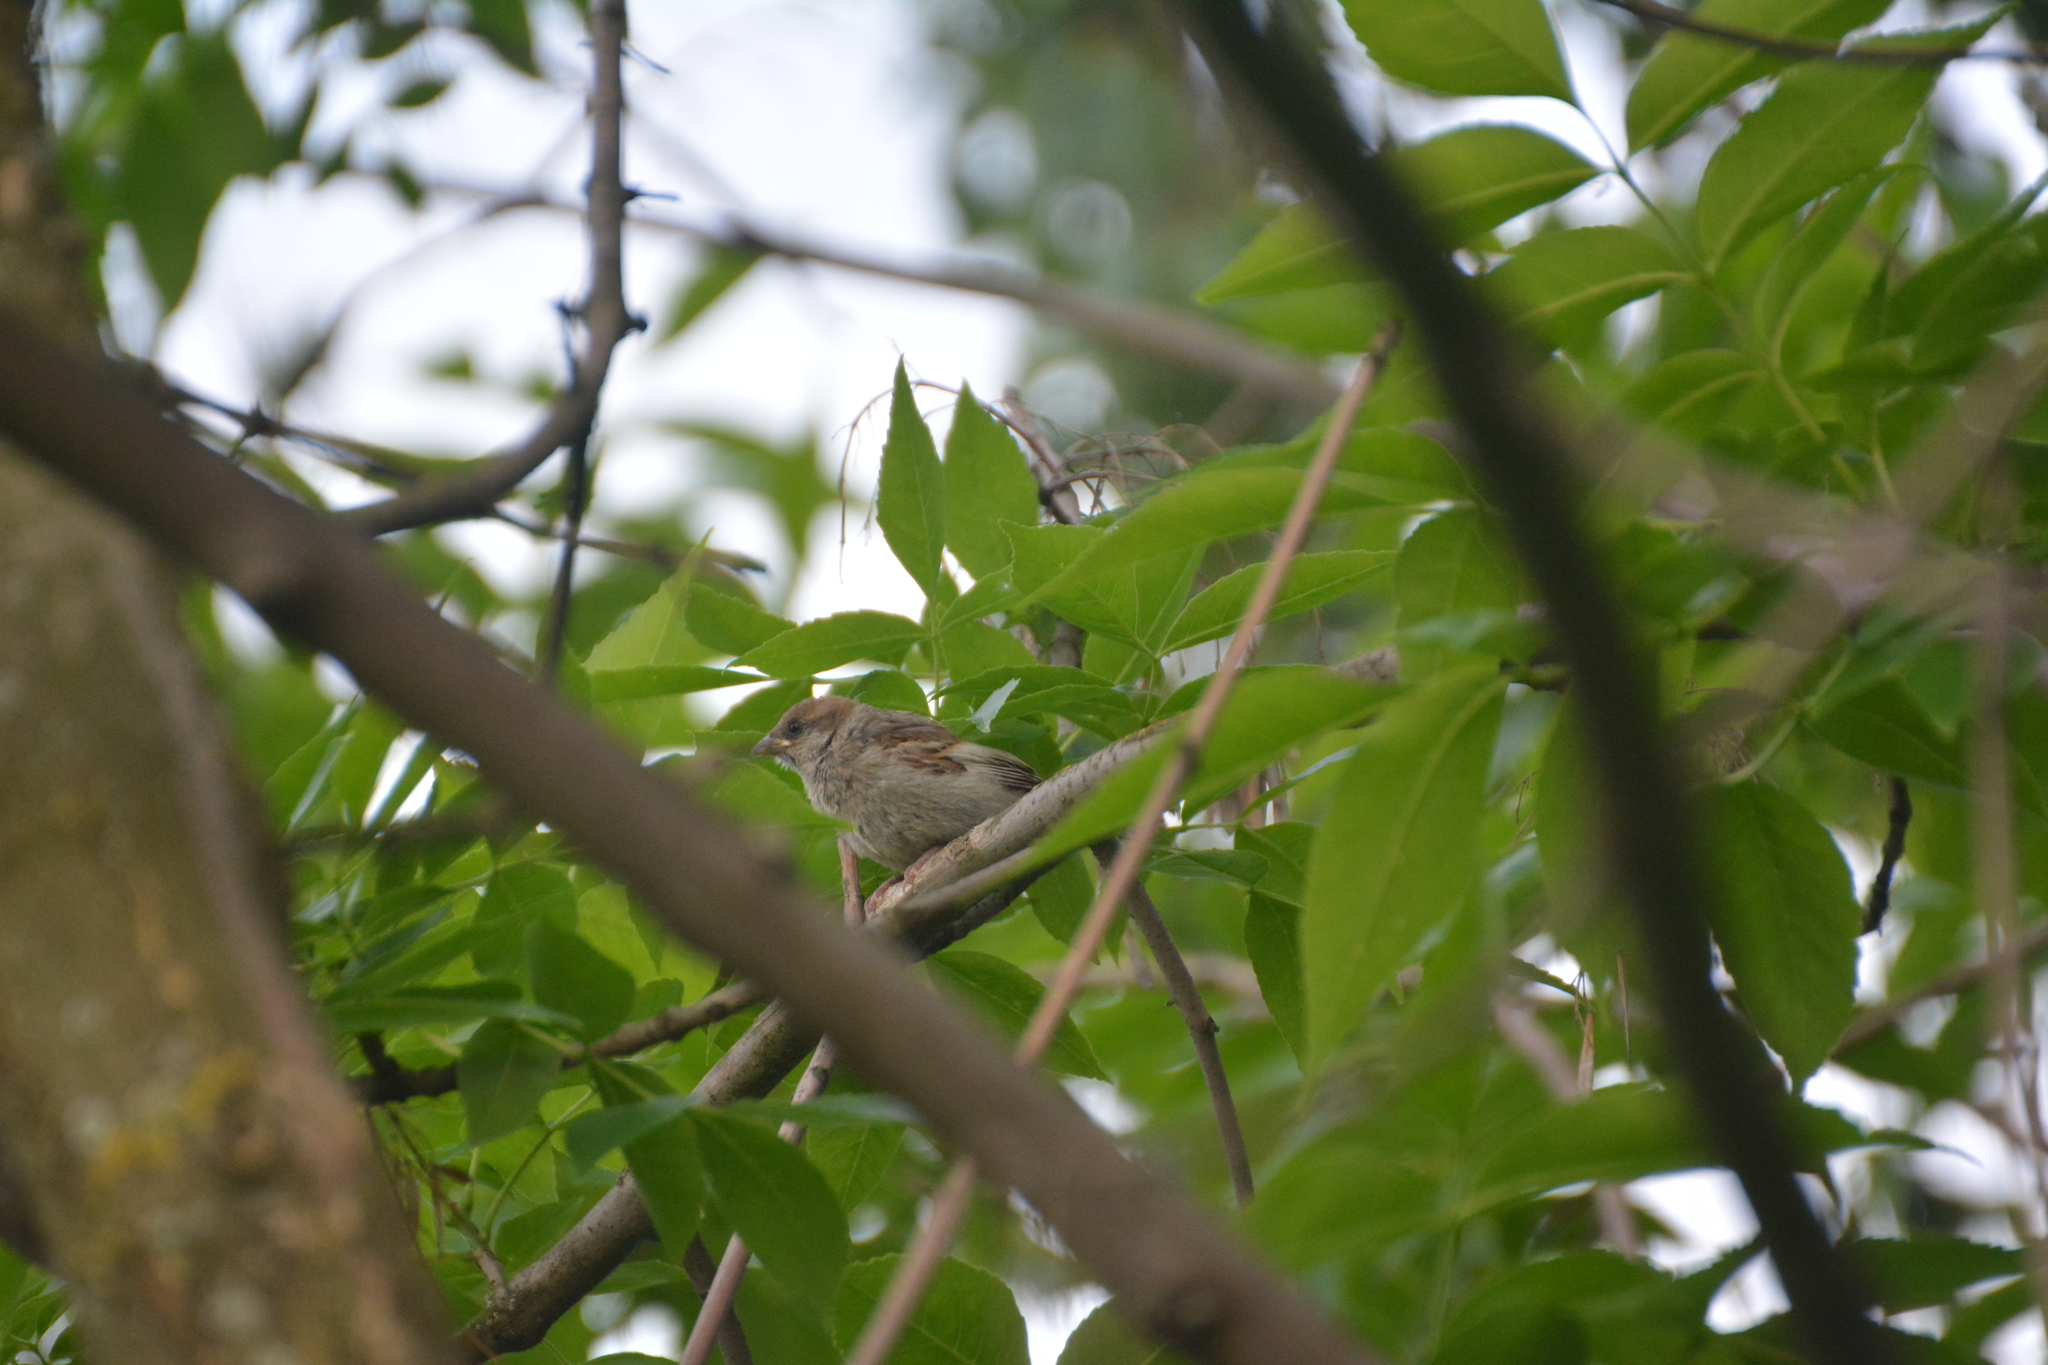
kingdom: Animalia
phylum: Chordata
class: Aves
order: Passeriformes
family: Passeridae
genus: Passer
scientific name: Passer montanus
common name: Eurasian tree sparrow
